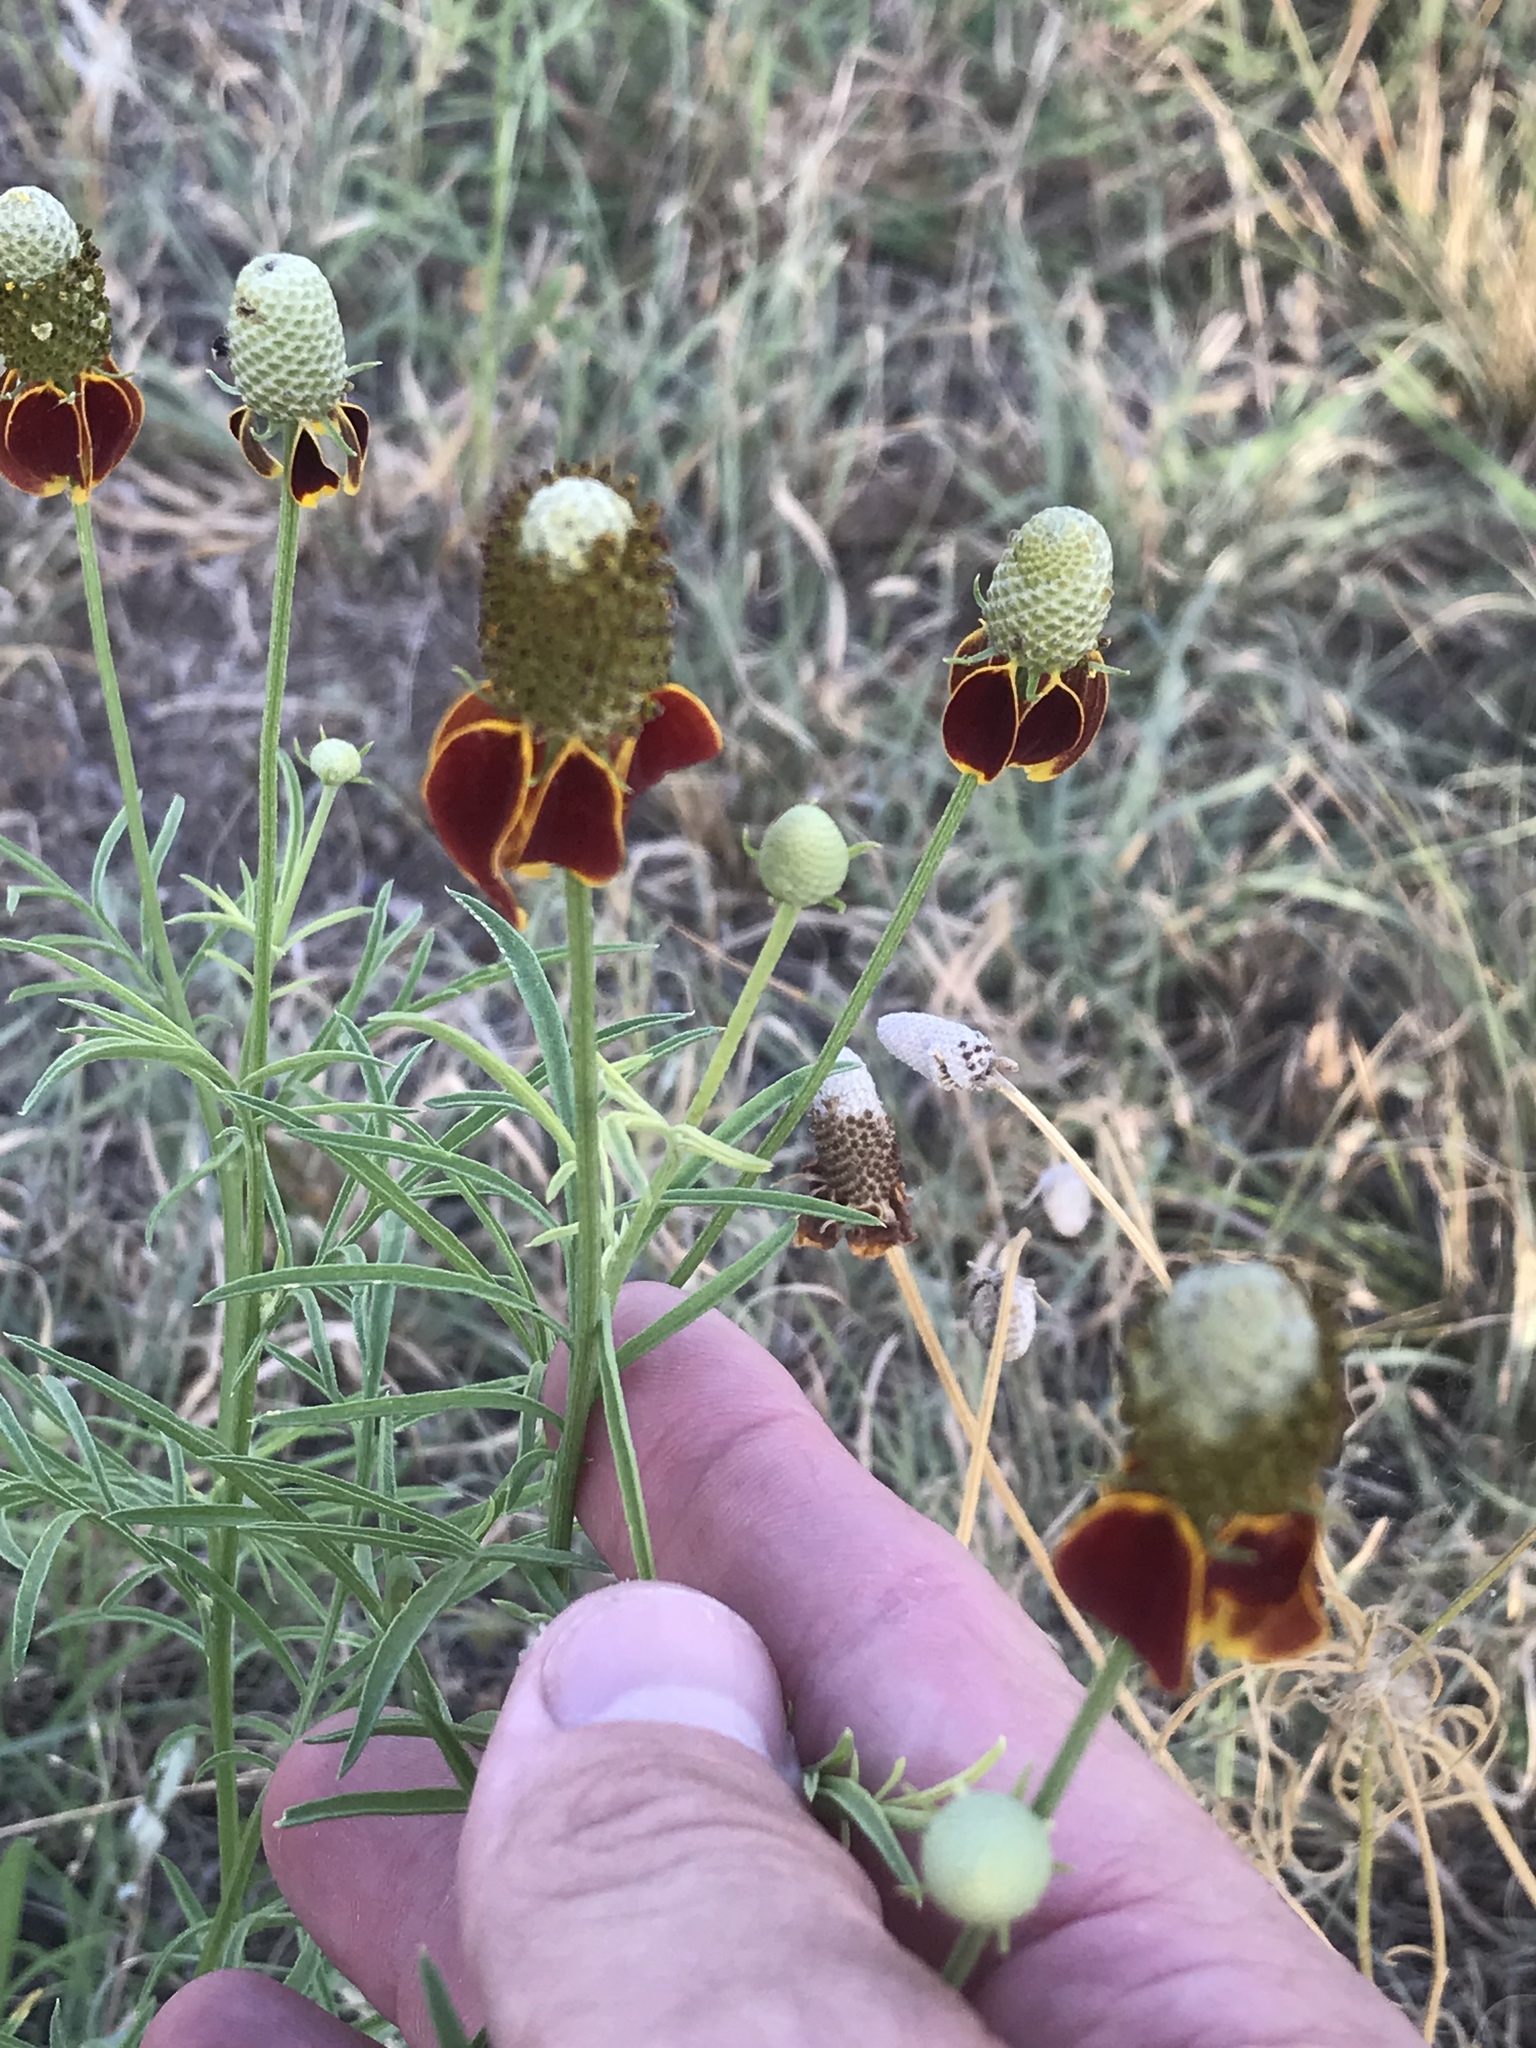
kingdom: Plantae
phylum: Tracheophyta
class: Magnoliopsida
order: Asterales
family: Asteraceae
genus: Ratibida
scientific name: Ratibida columnifera
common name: Prairie coneflower
